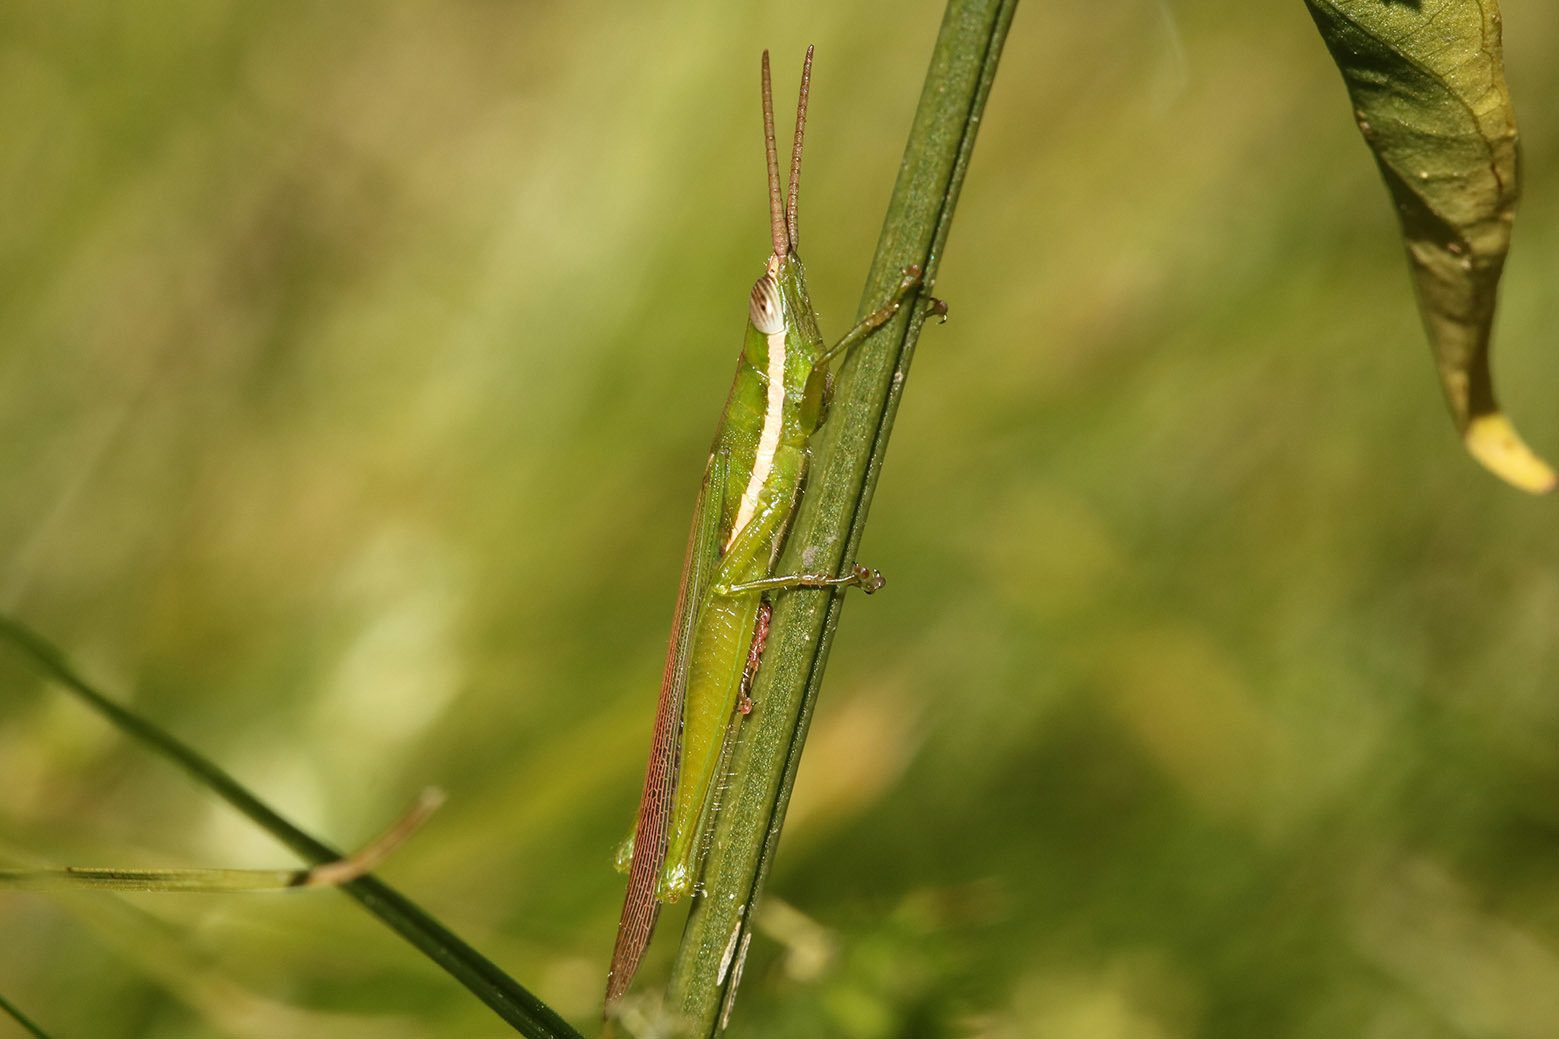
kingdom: Animalia
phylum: Arthropoda
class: Insecta
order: Orthoptera
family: Acrididae
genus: Tucayaca
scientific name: Tucayaca gracilis
